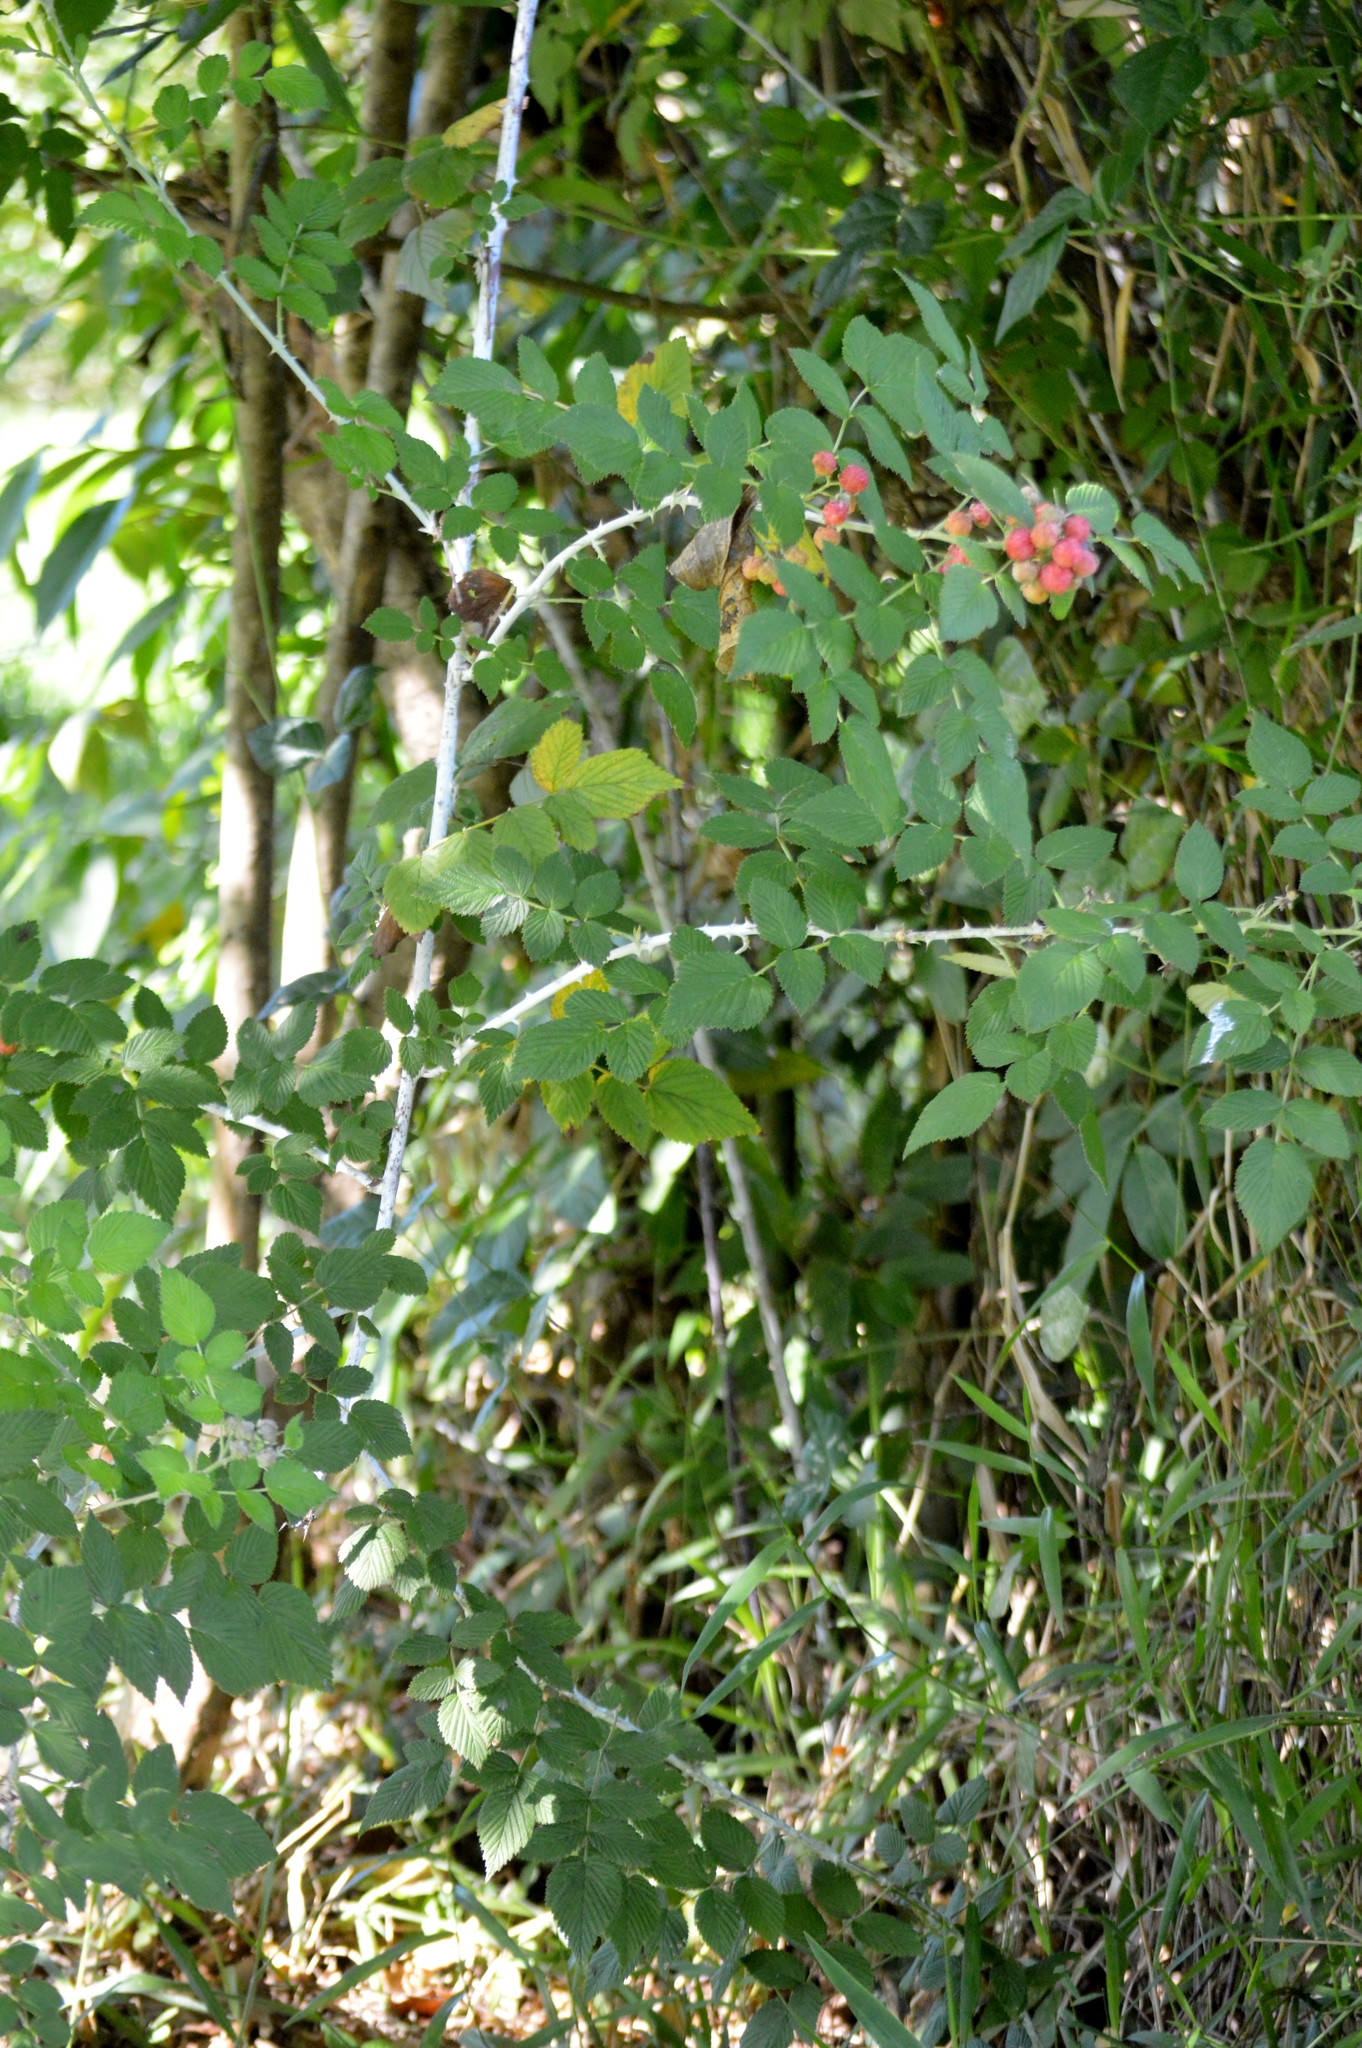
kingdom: Plantae
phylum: Tracheophyta
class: Magnoliopsida
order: Rosales
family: Rosaceae
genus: Rubus
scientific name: Rubus niveus
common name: Snowpeaks raspberry
